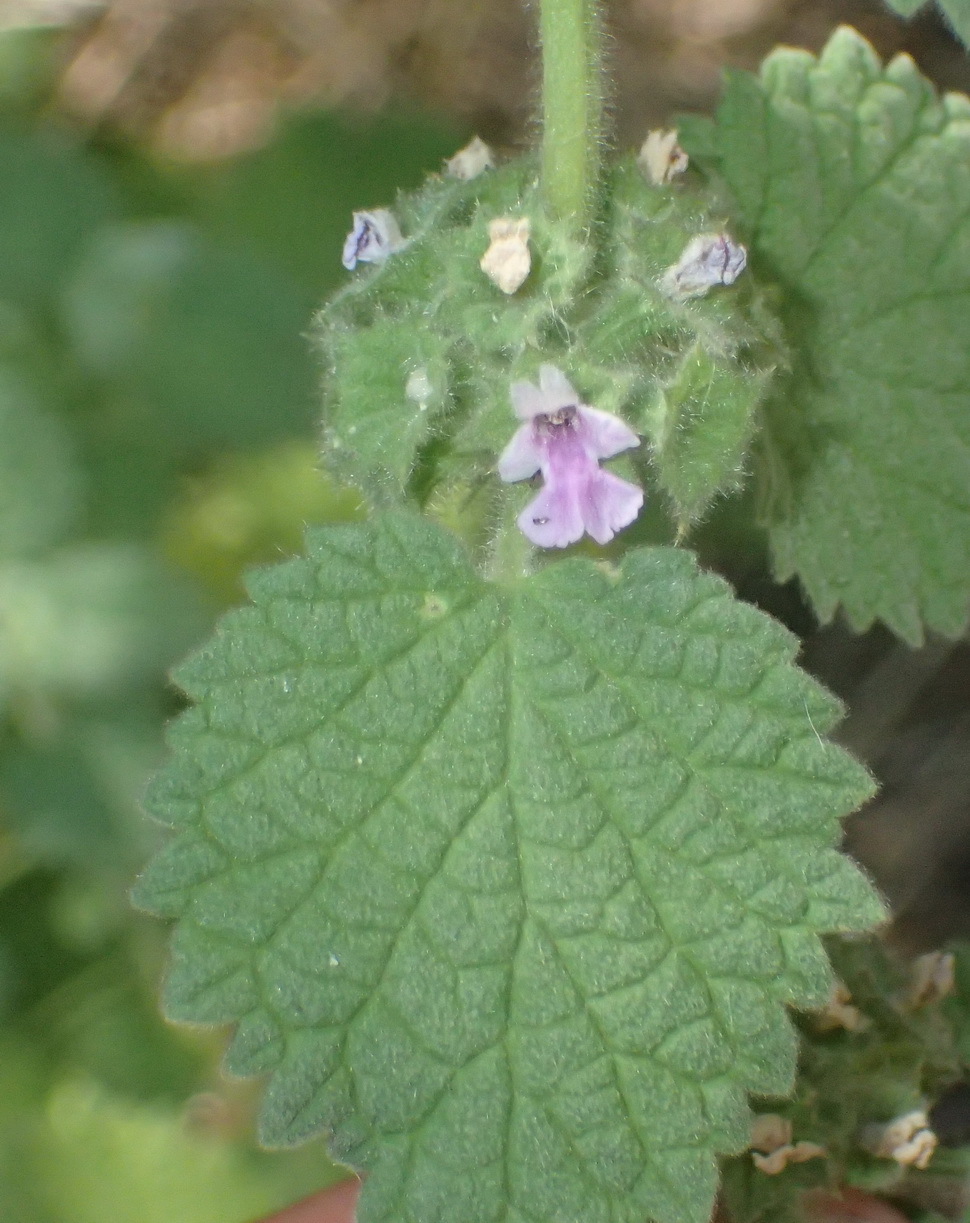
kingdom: Plantae
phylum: Tracheophyta
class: Magnoliopsida
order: Lamiales
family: Lamiaceae
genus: Pseudodictamnus
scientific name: Pseudodictamnus africanus
